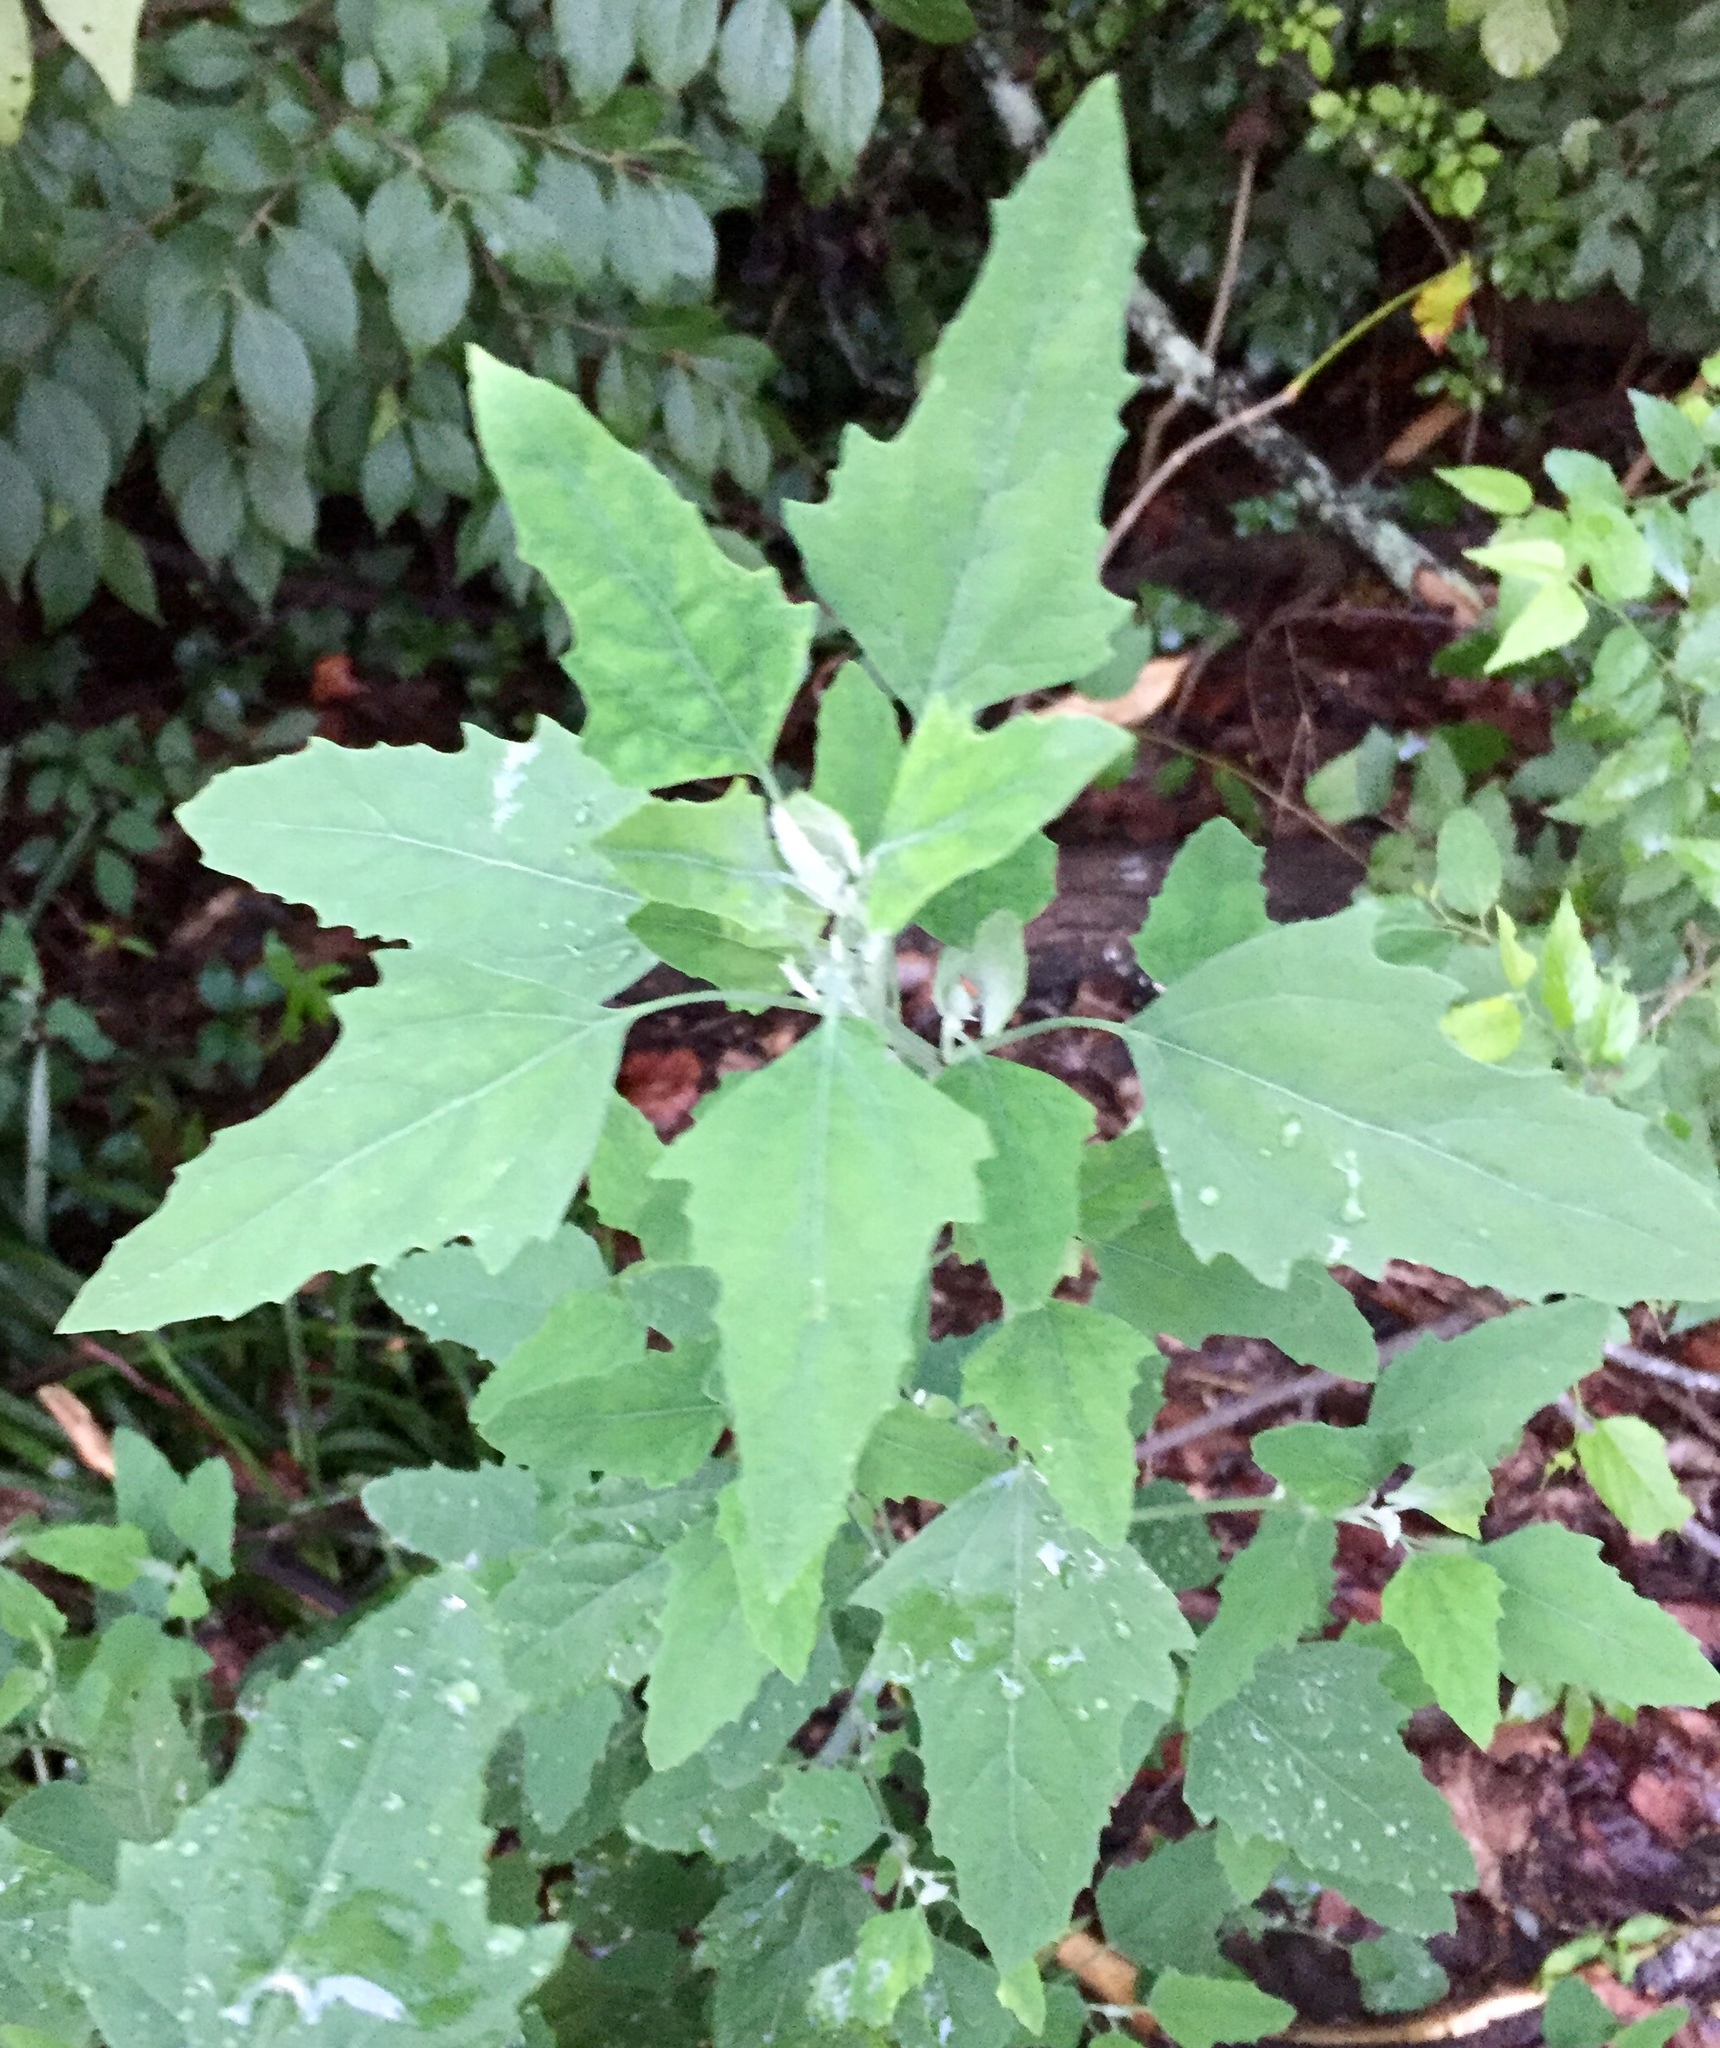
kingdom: Plantae
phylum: Tracheophyta
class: Magnoliopsida
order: Caryophyllales
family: Amaranthaceae
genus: Chenopodium
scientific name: Chenopodium album
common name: Fat-hen
